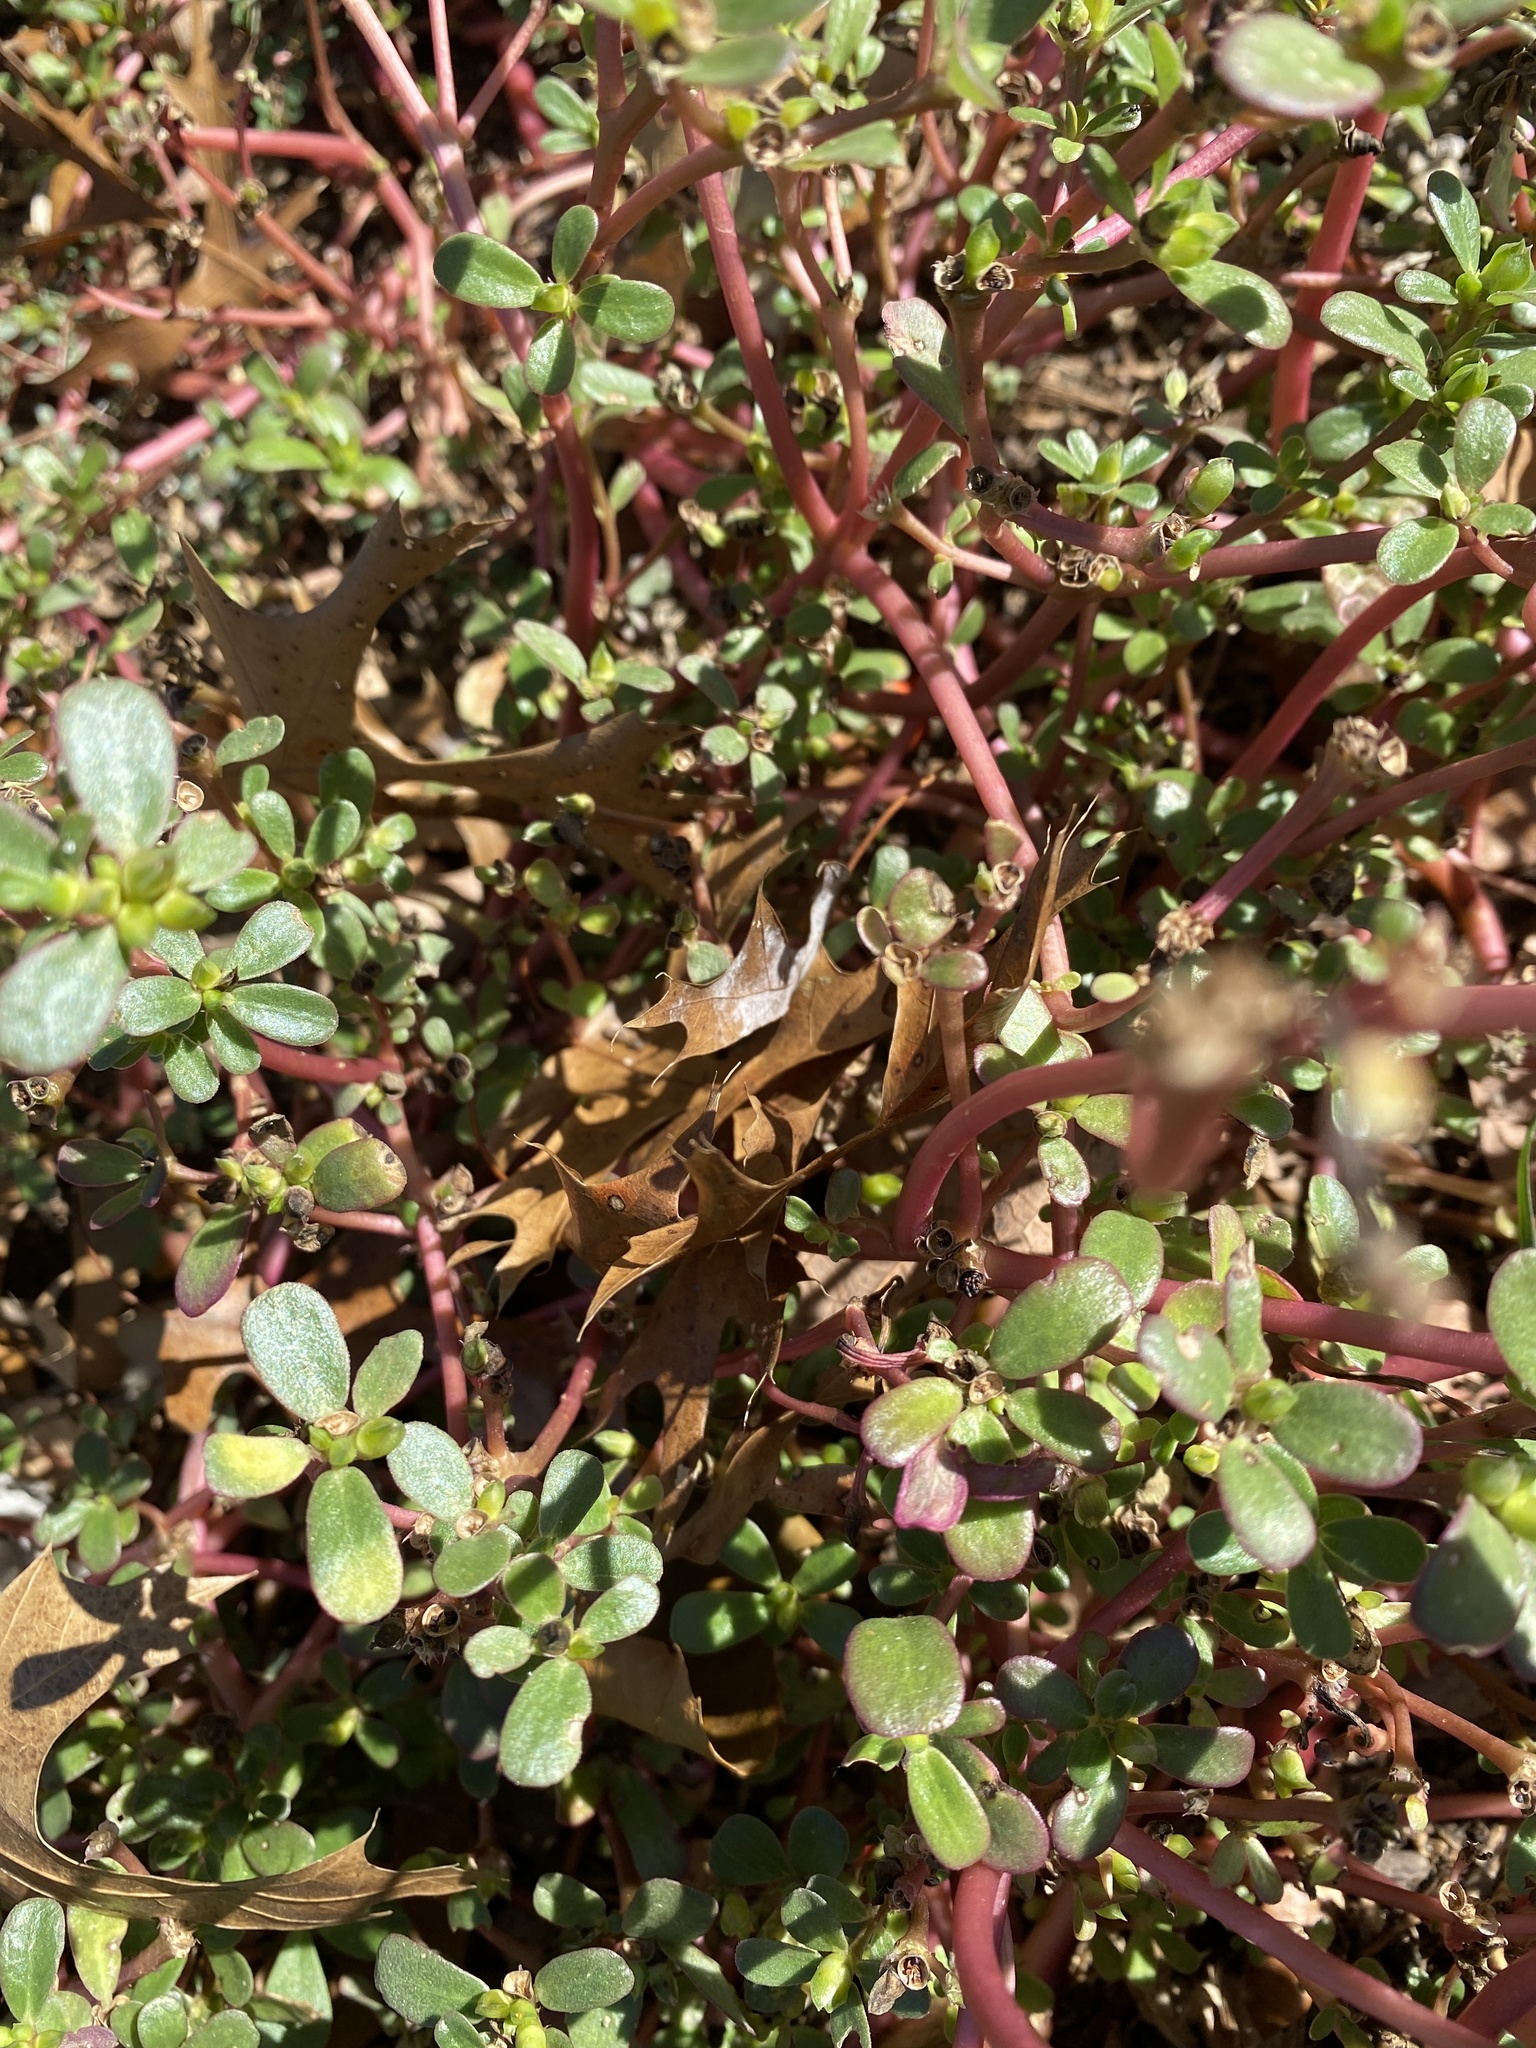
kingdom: Plantae
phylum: Tracheophyta
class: Magnoliopsida
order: Caryophyllales
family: Portulacaceae
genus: Portulaca
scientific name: Portulaca oleracea
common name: Common purslane
